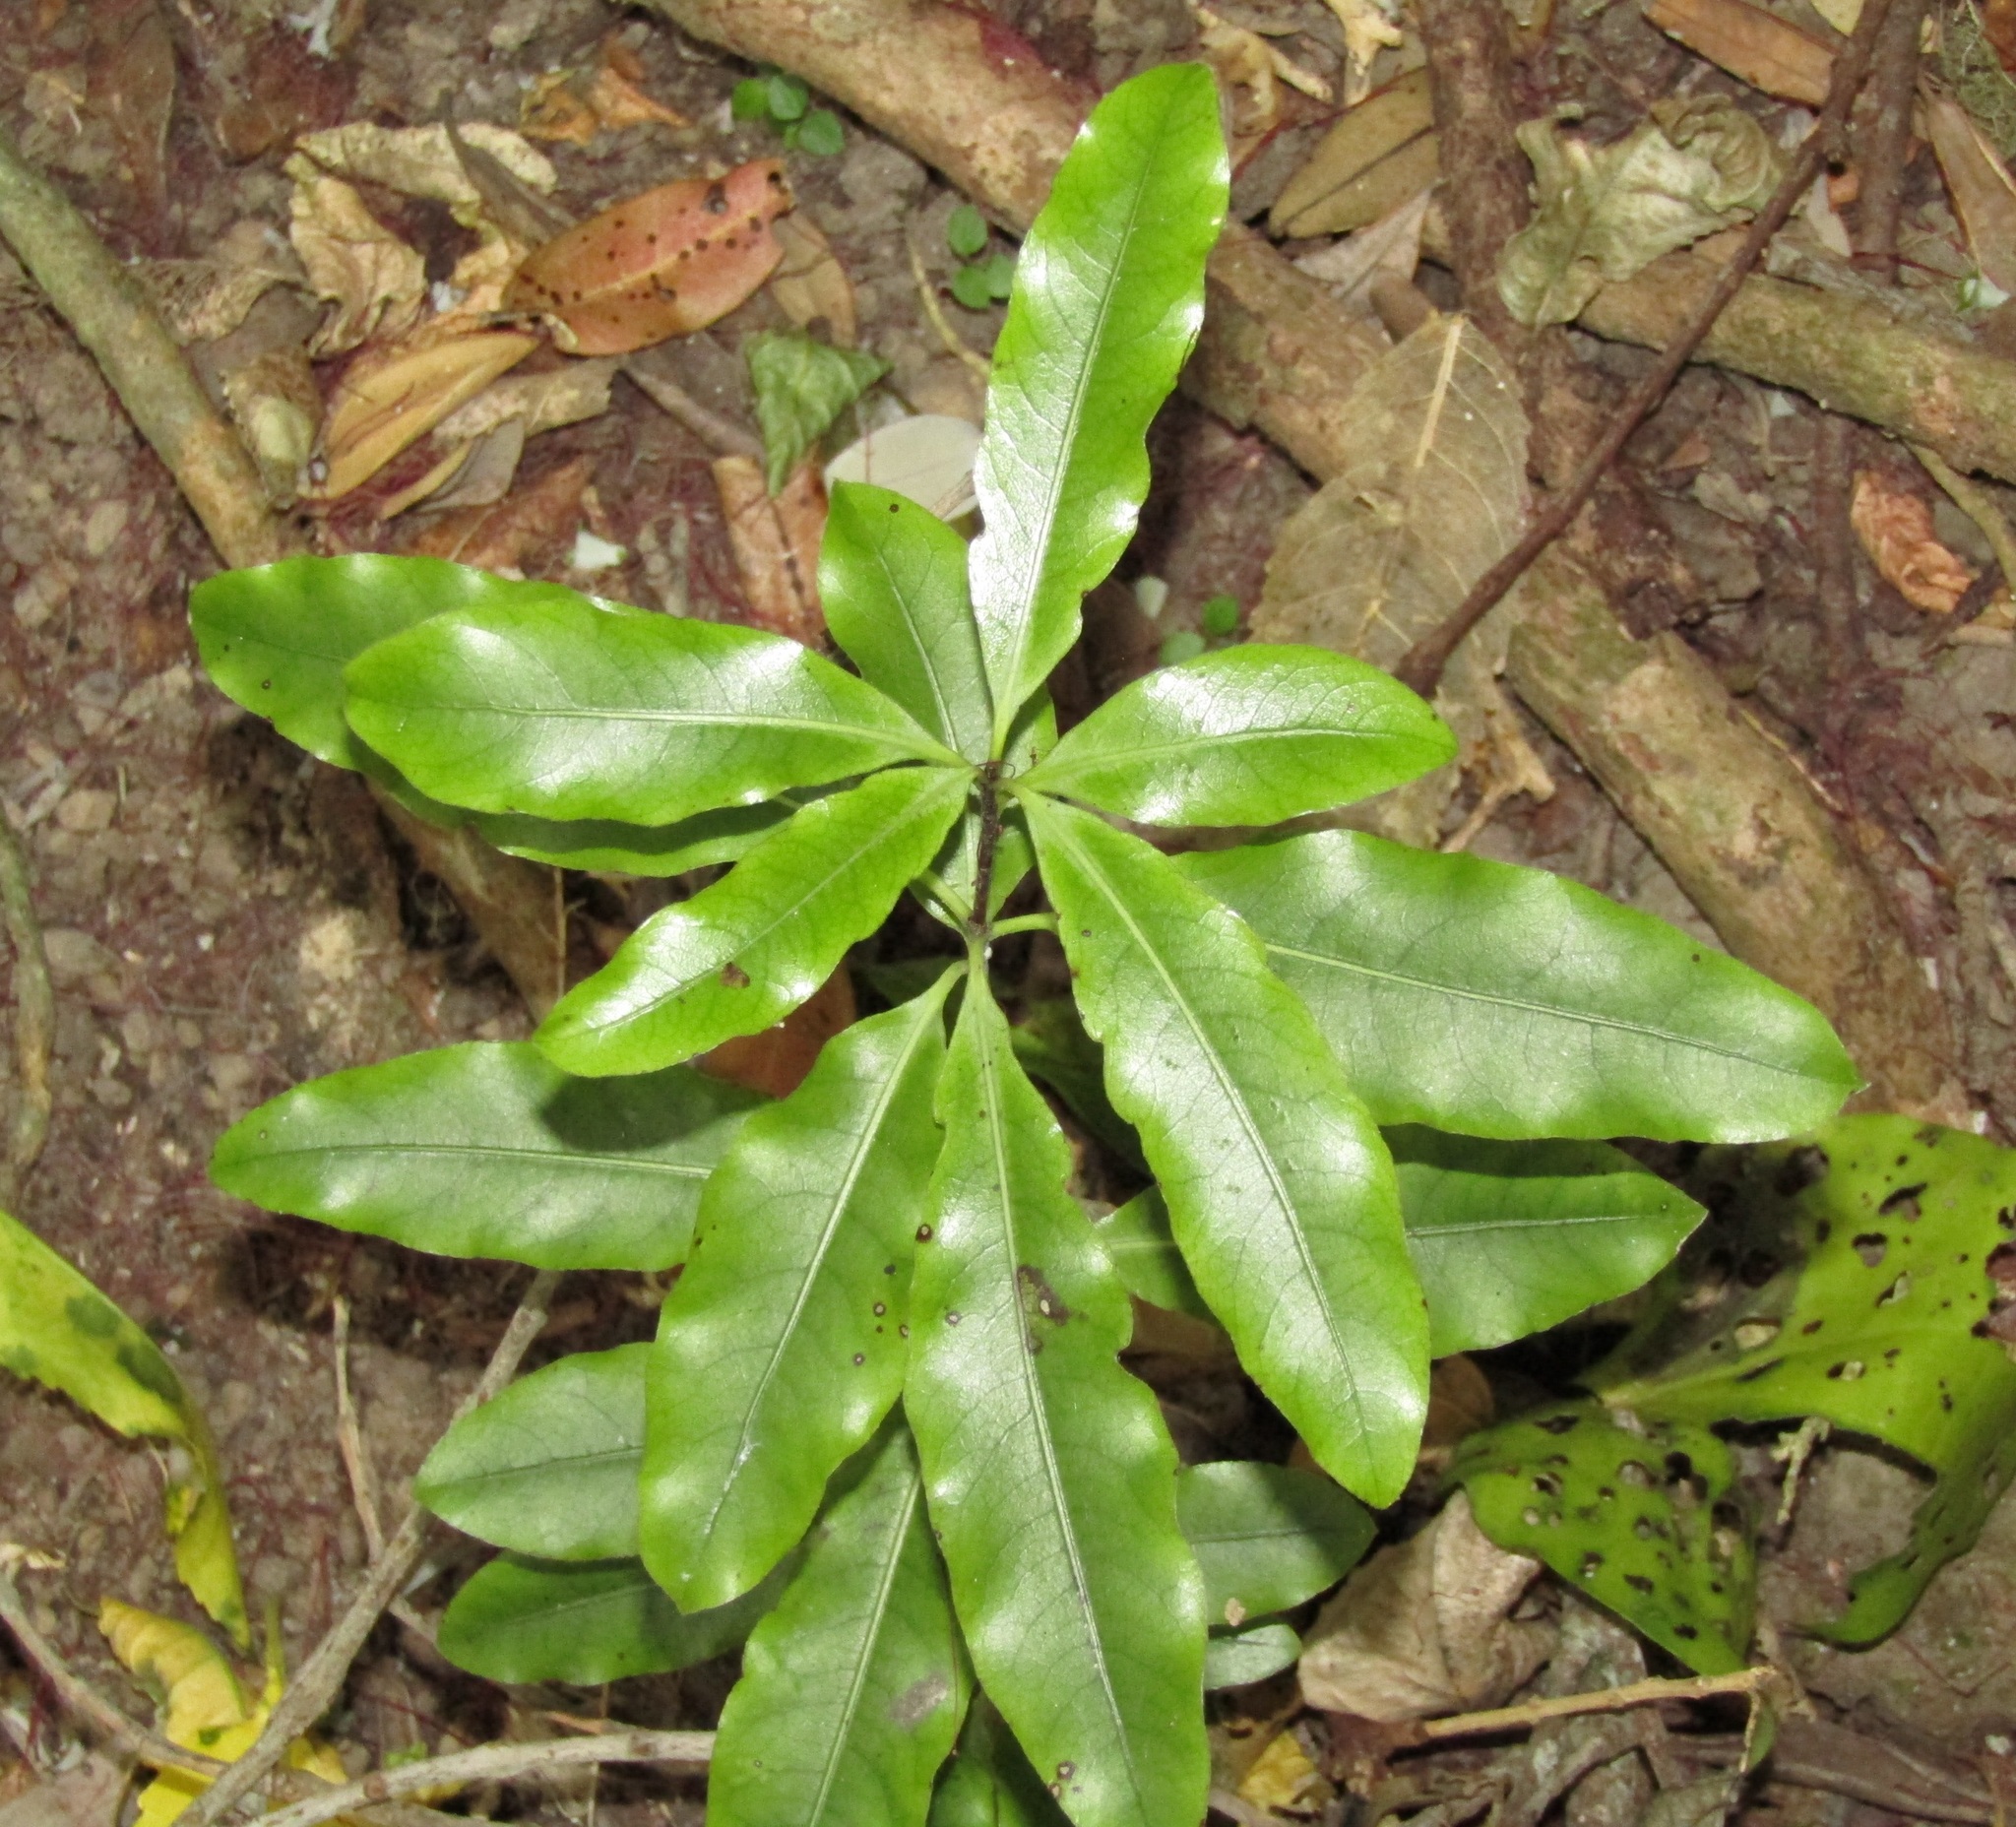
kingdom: Plantae
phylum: Tracheophyta
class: Magnoliopsida
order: Apiales
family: Pittosporaceae
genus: Pittosporum
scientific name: Pittosporum eugenioides
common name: Lemonwood
